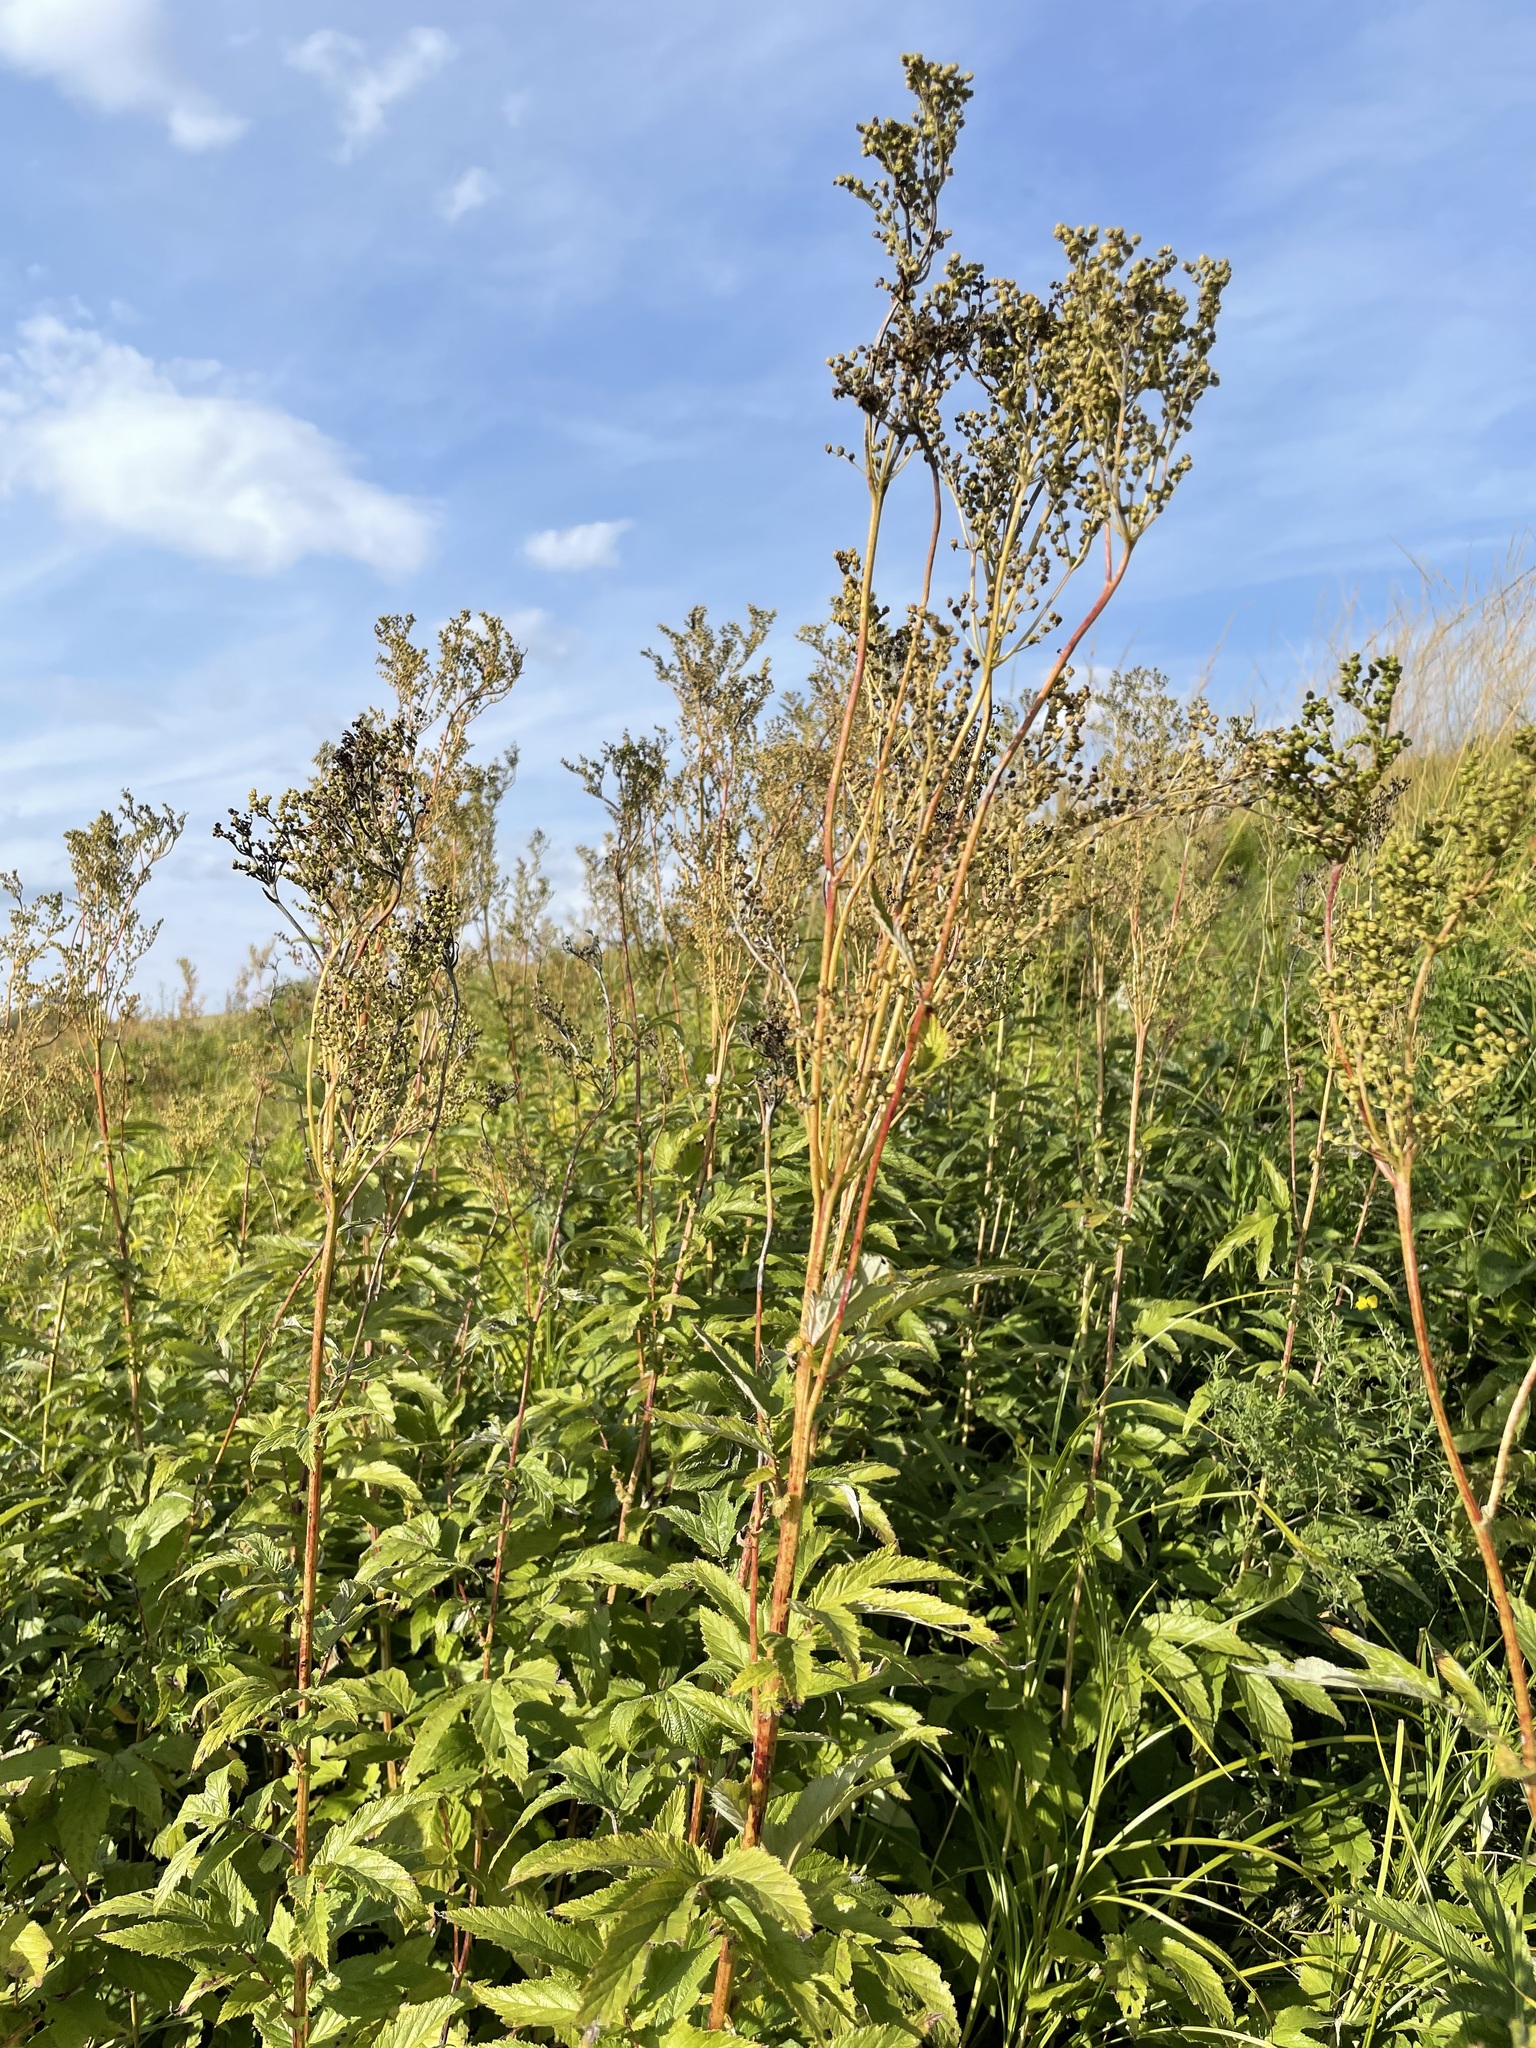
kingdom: Plantae
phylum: Tracheophyta
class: Magnoliopsida
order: Rosales
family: Rosaceae
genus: Filipendula
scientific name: Filipendula ulmaria
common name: Meadowsweet
